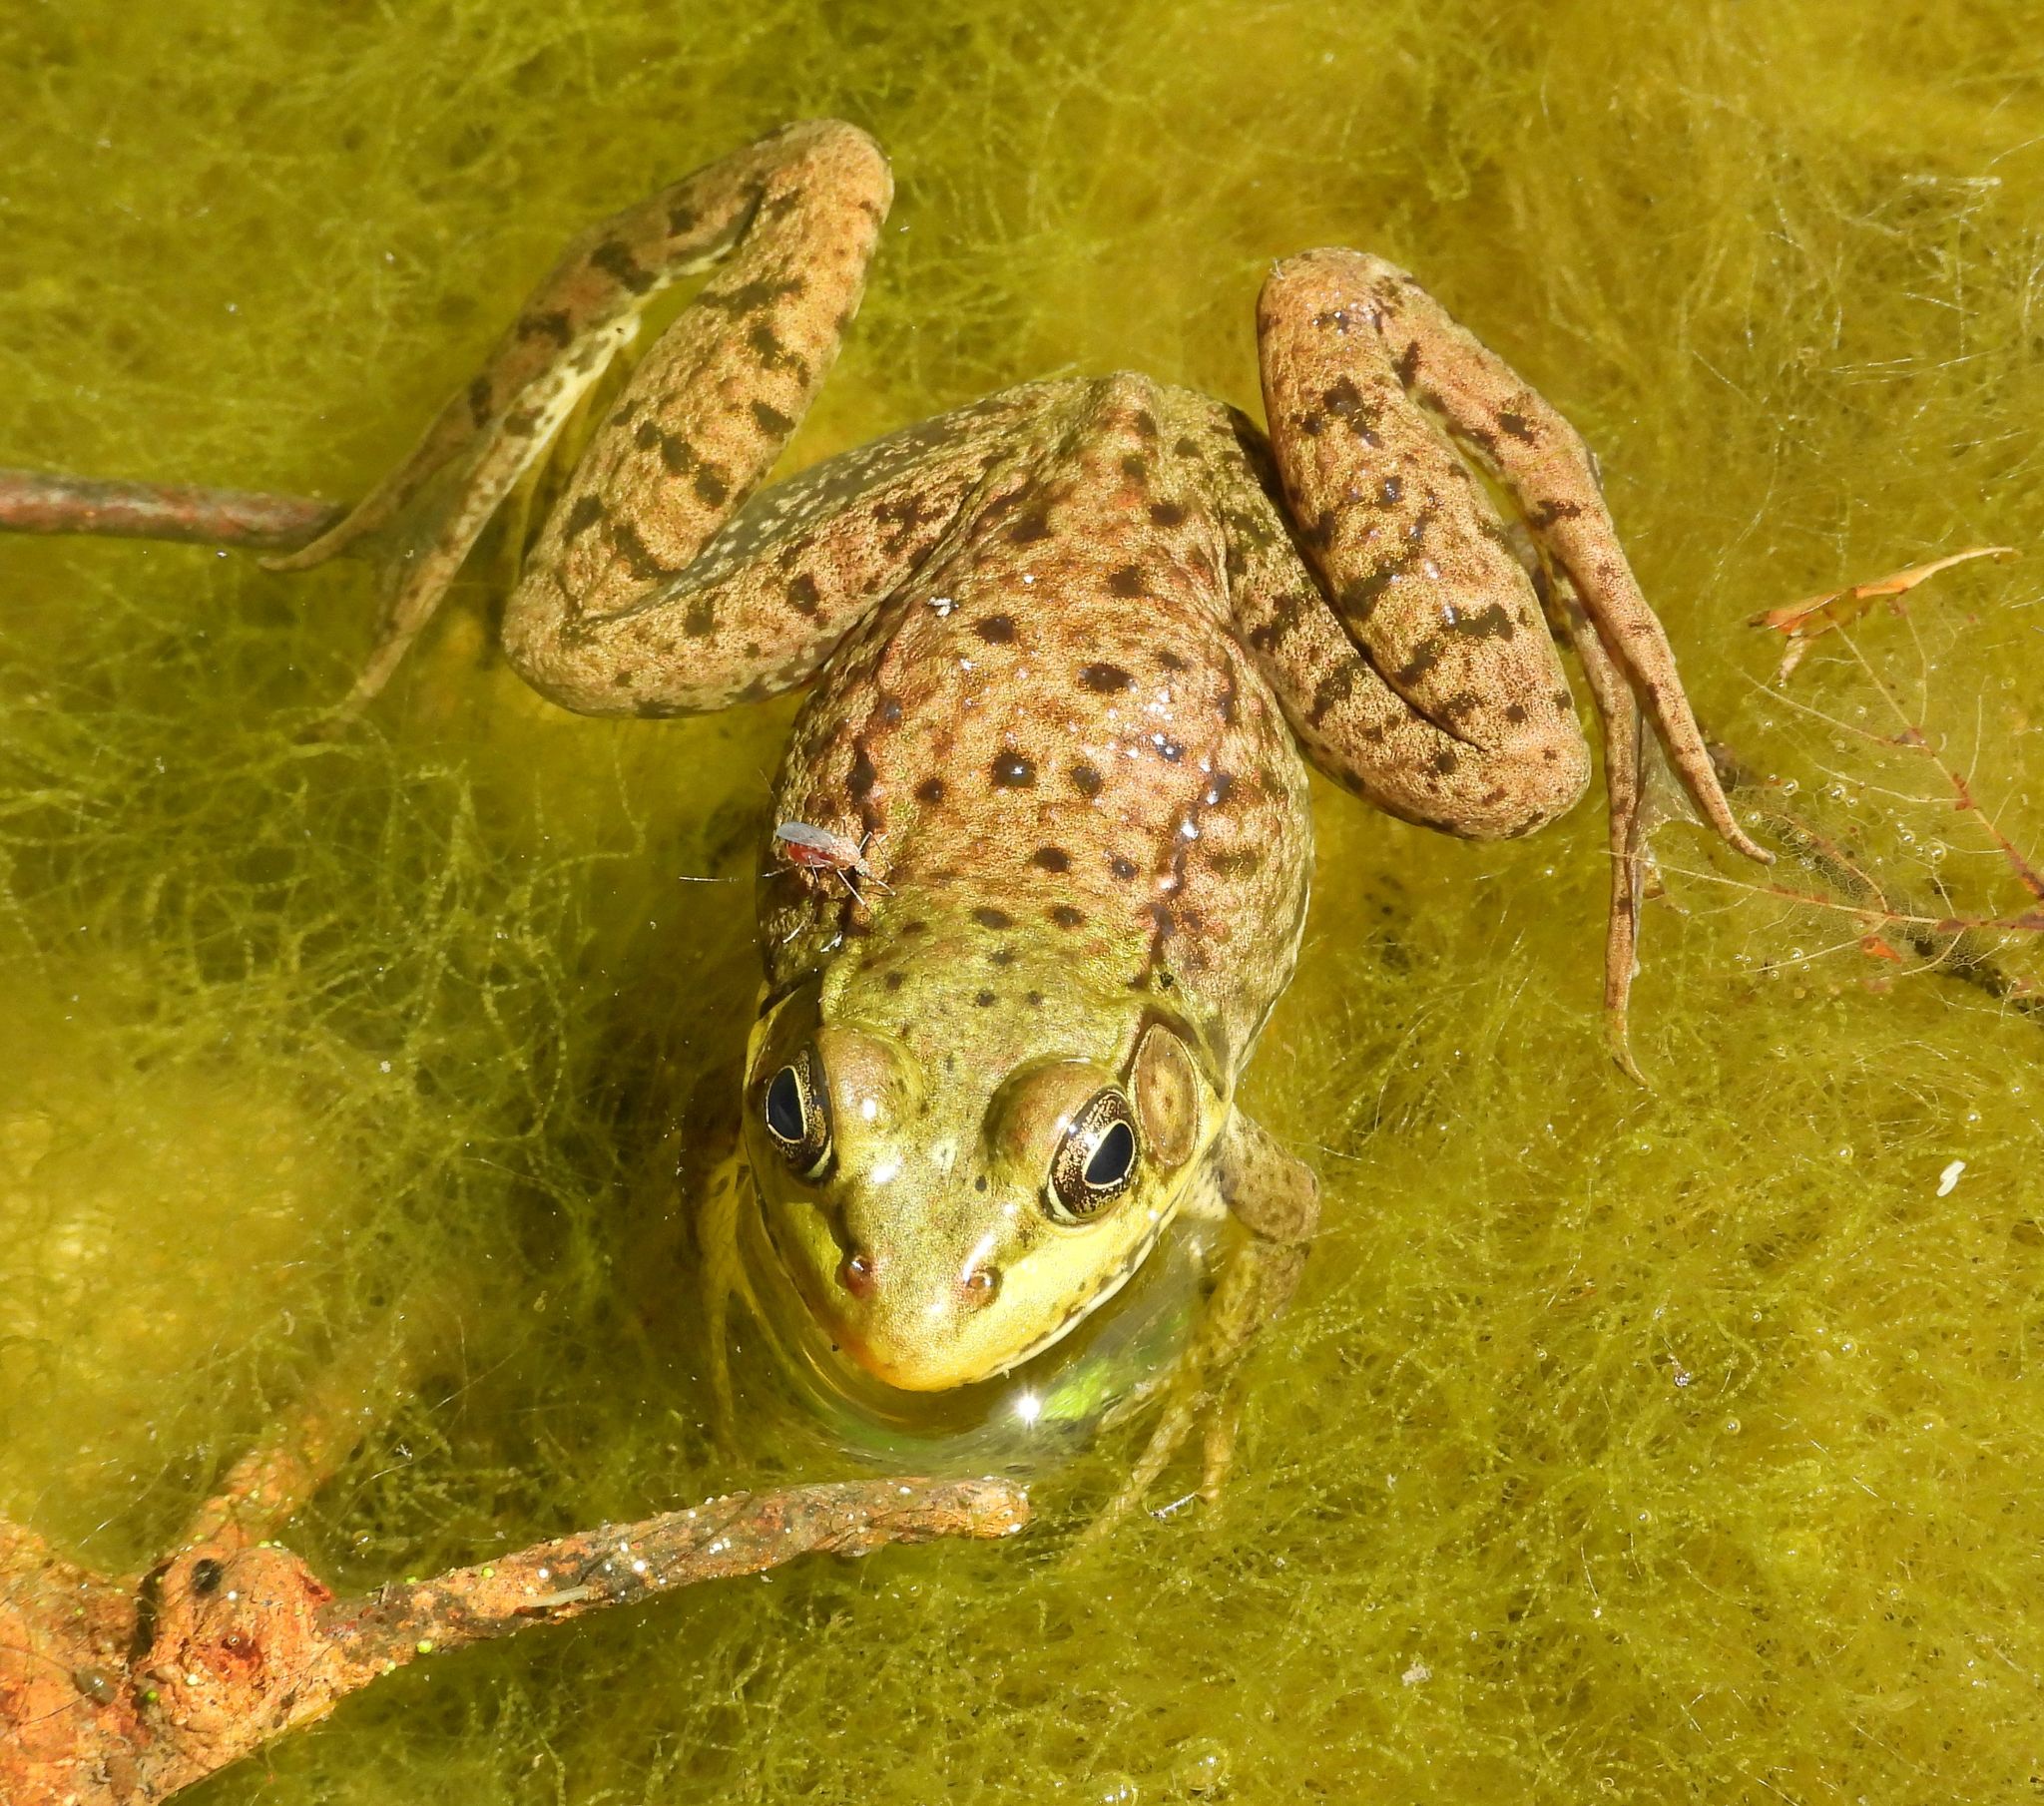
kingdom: Animalia
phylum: Chordata
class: Amphibia
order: Anura
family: Ranidae
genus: Lithobates
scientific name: Lithobates clamitans
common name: Green frog
